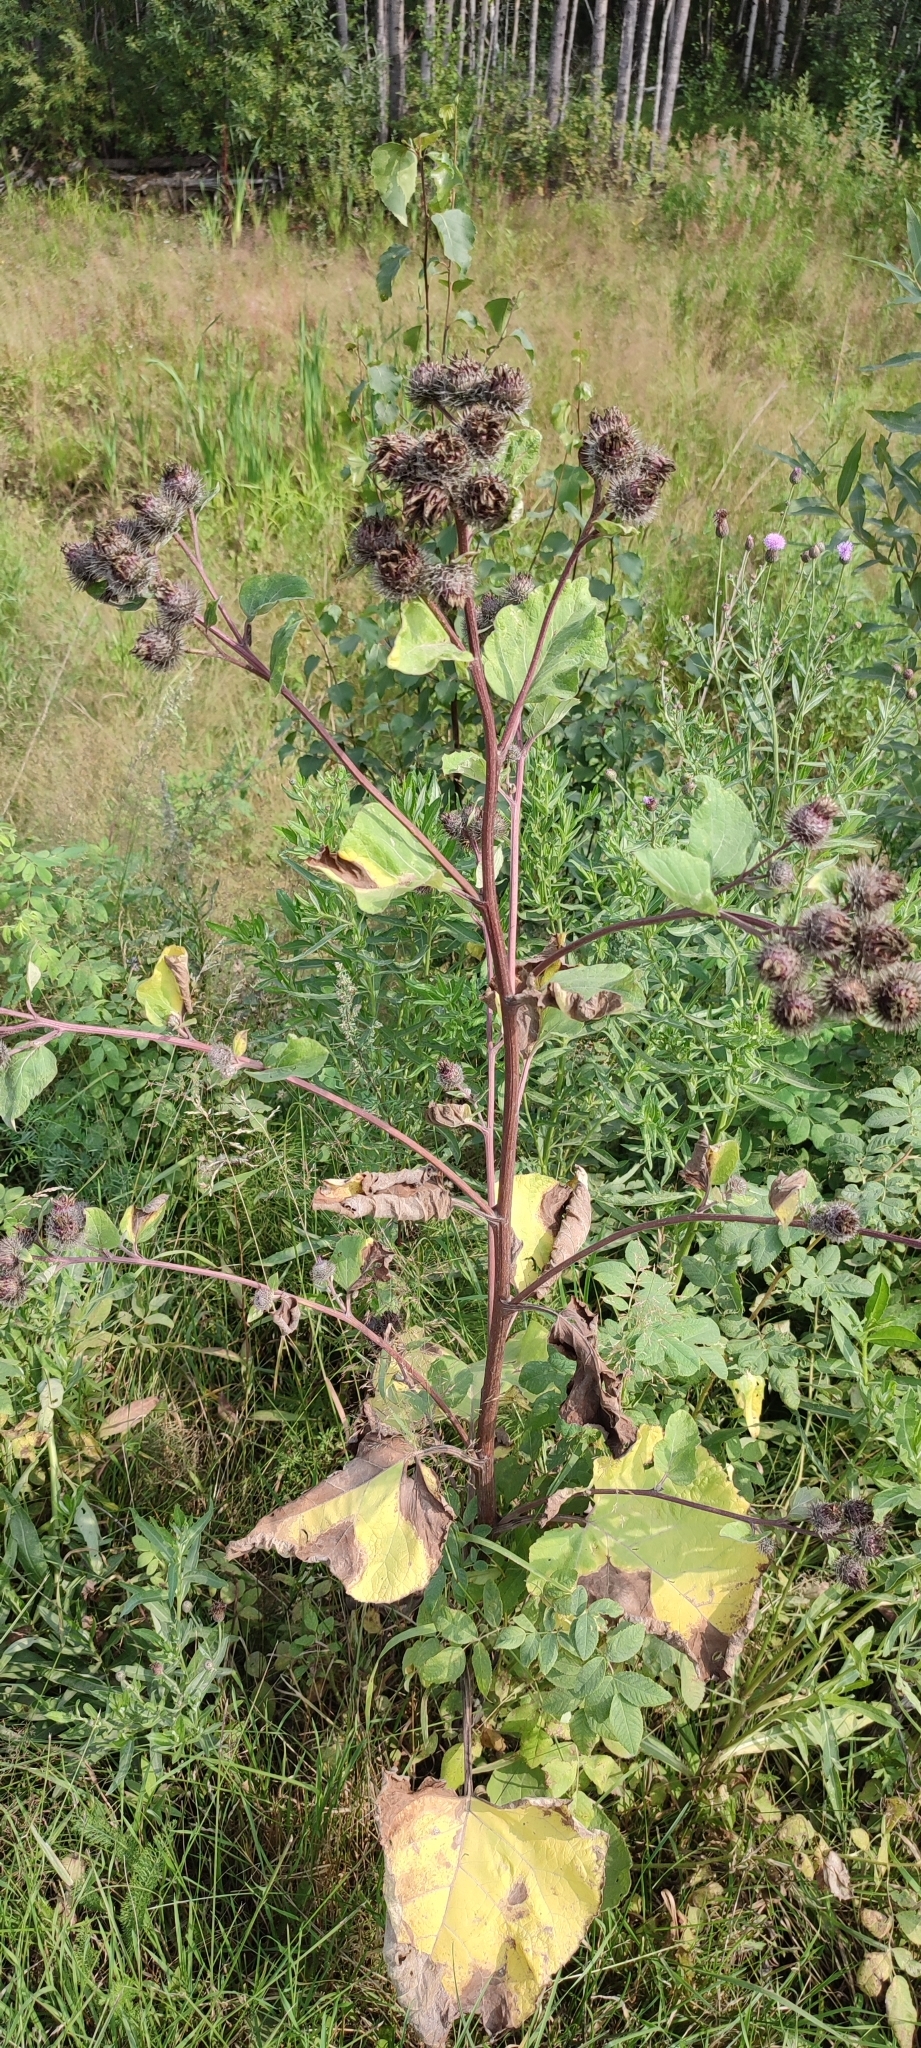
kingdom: Plantae
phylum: Tracheophyta
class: Magnoliopsida
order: Asterales
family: Asteraceae
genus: Arctium
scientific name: Arctium tomentosum
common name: Woolly burdock
